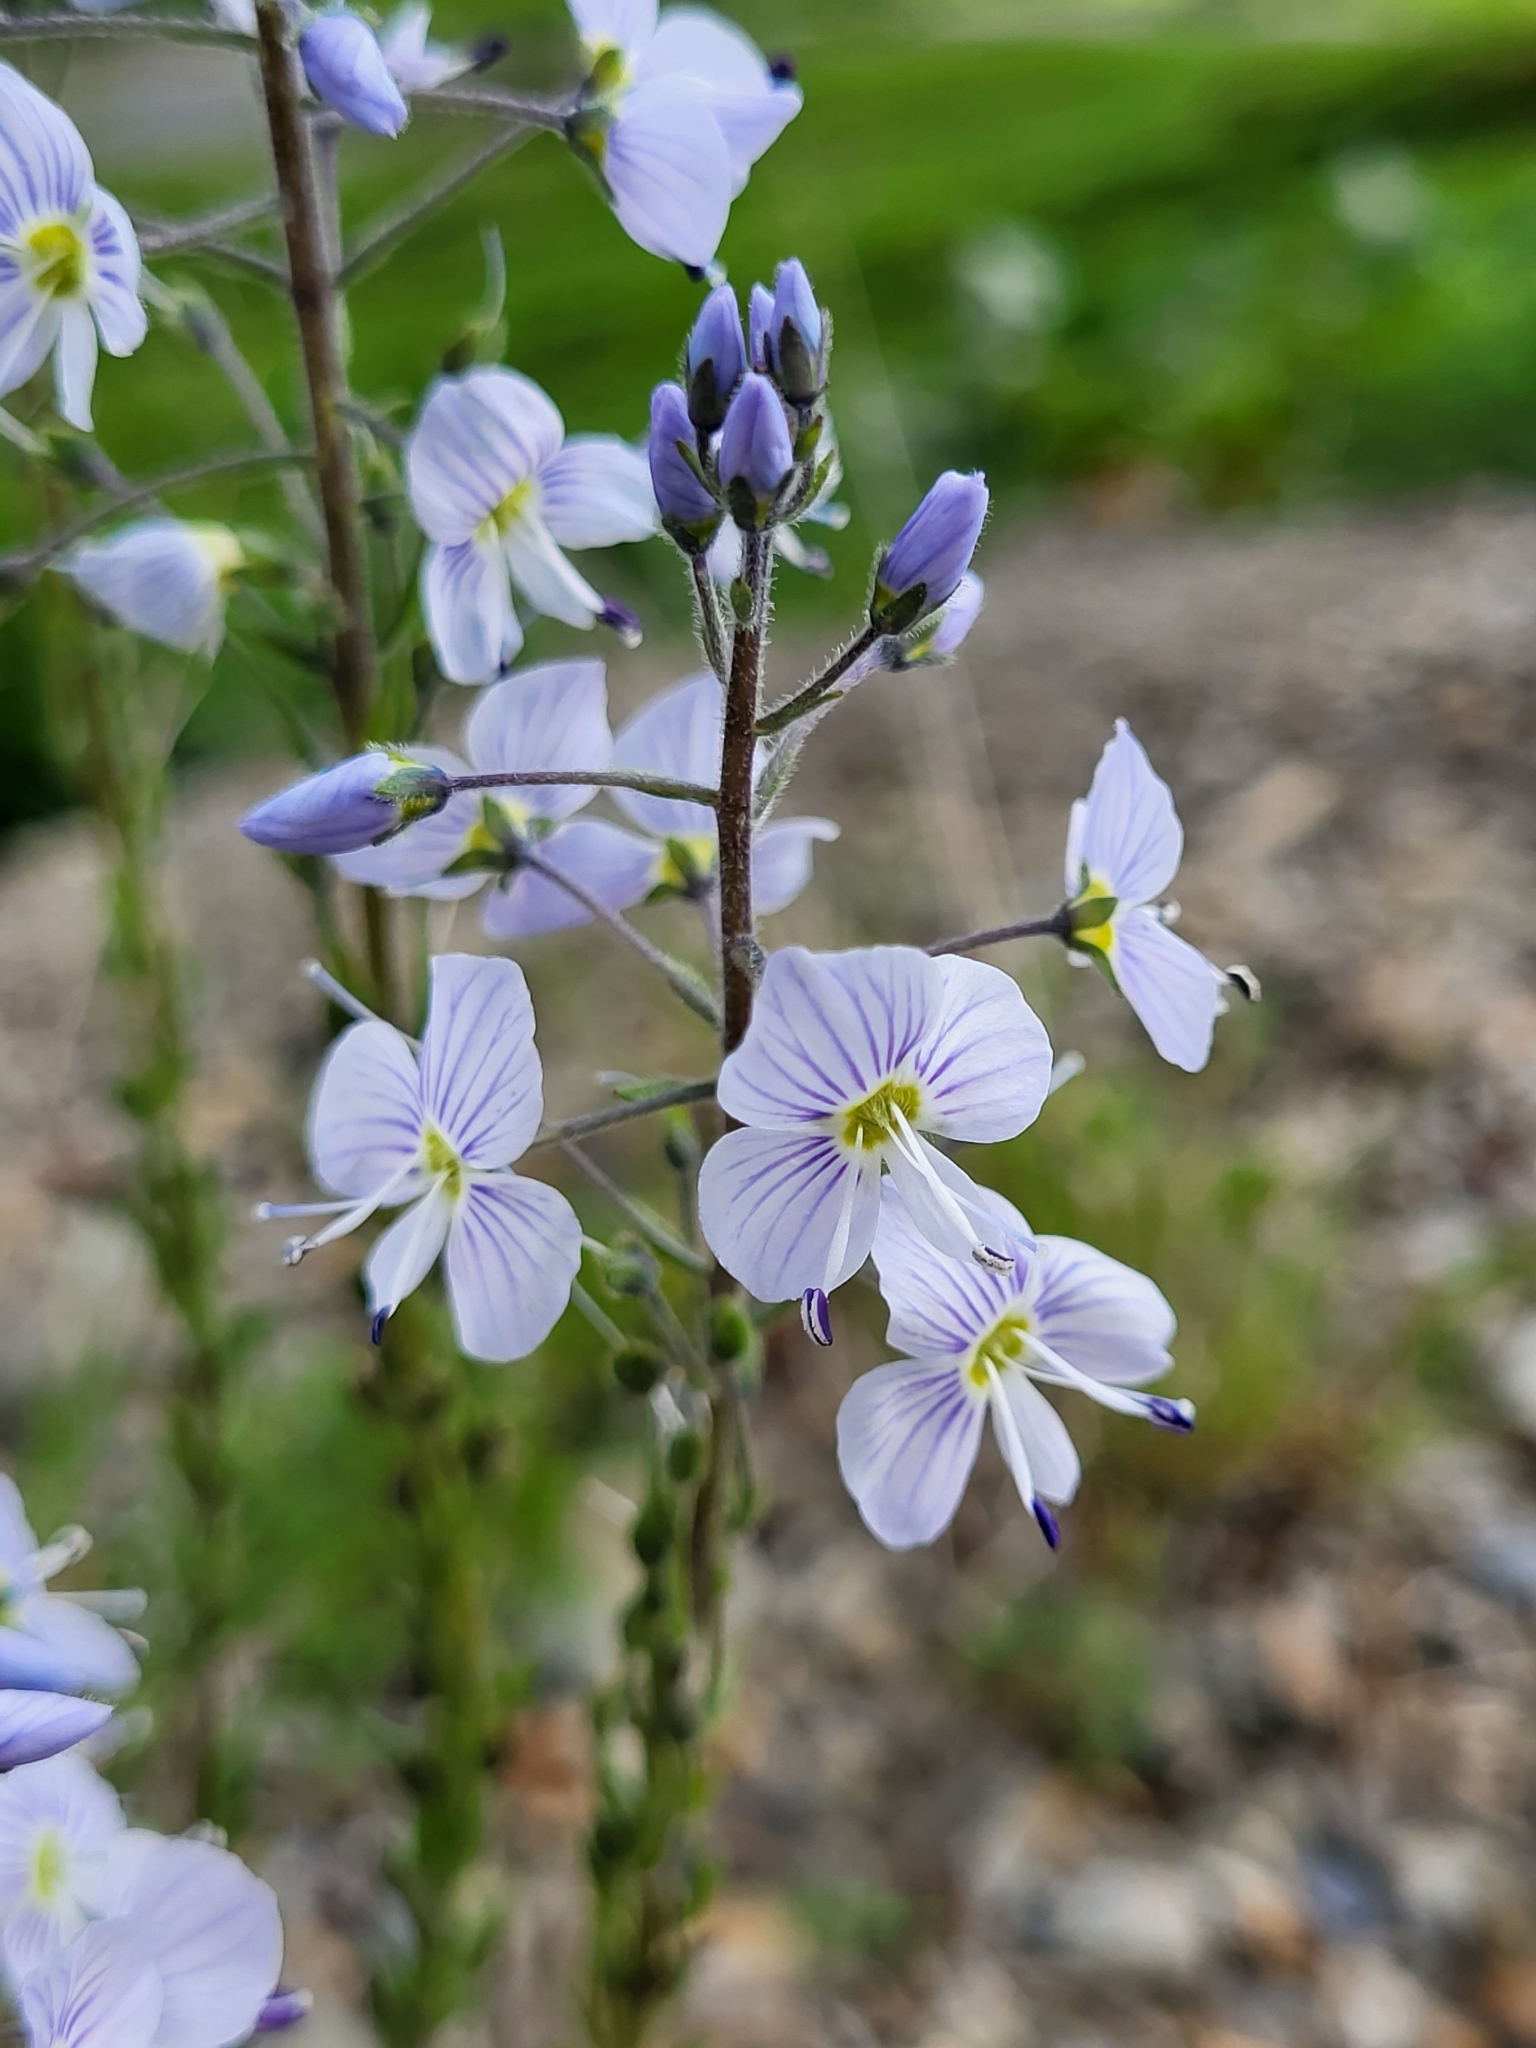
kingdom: Plantae
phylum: Tracheophyta
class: Magnoliopsida
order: Lamiales
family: Plantaginaceae
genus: Veronica
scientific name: Veronica gentianoides
